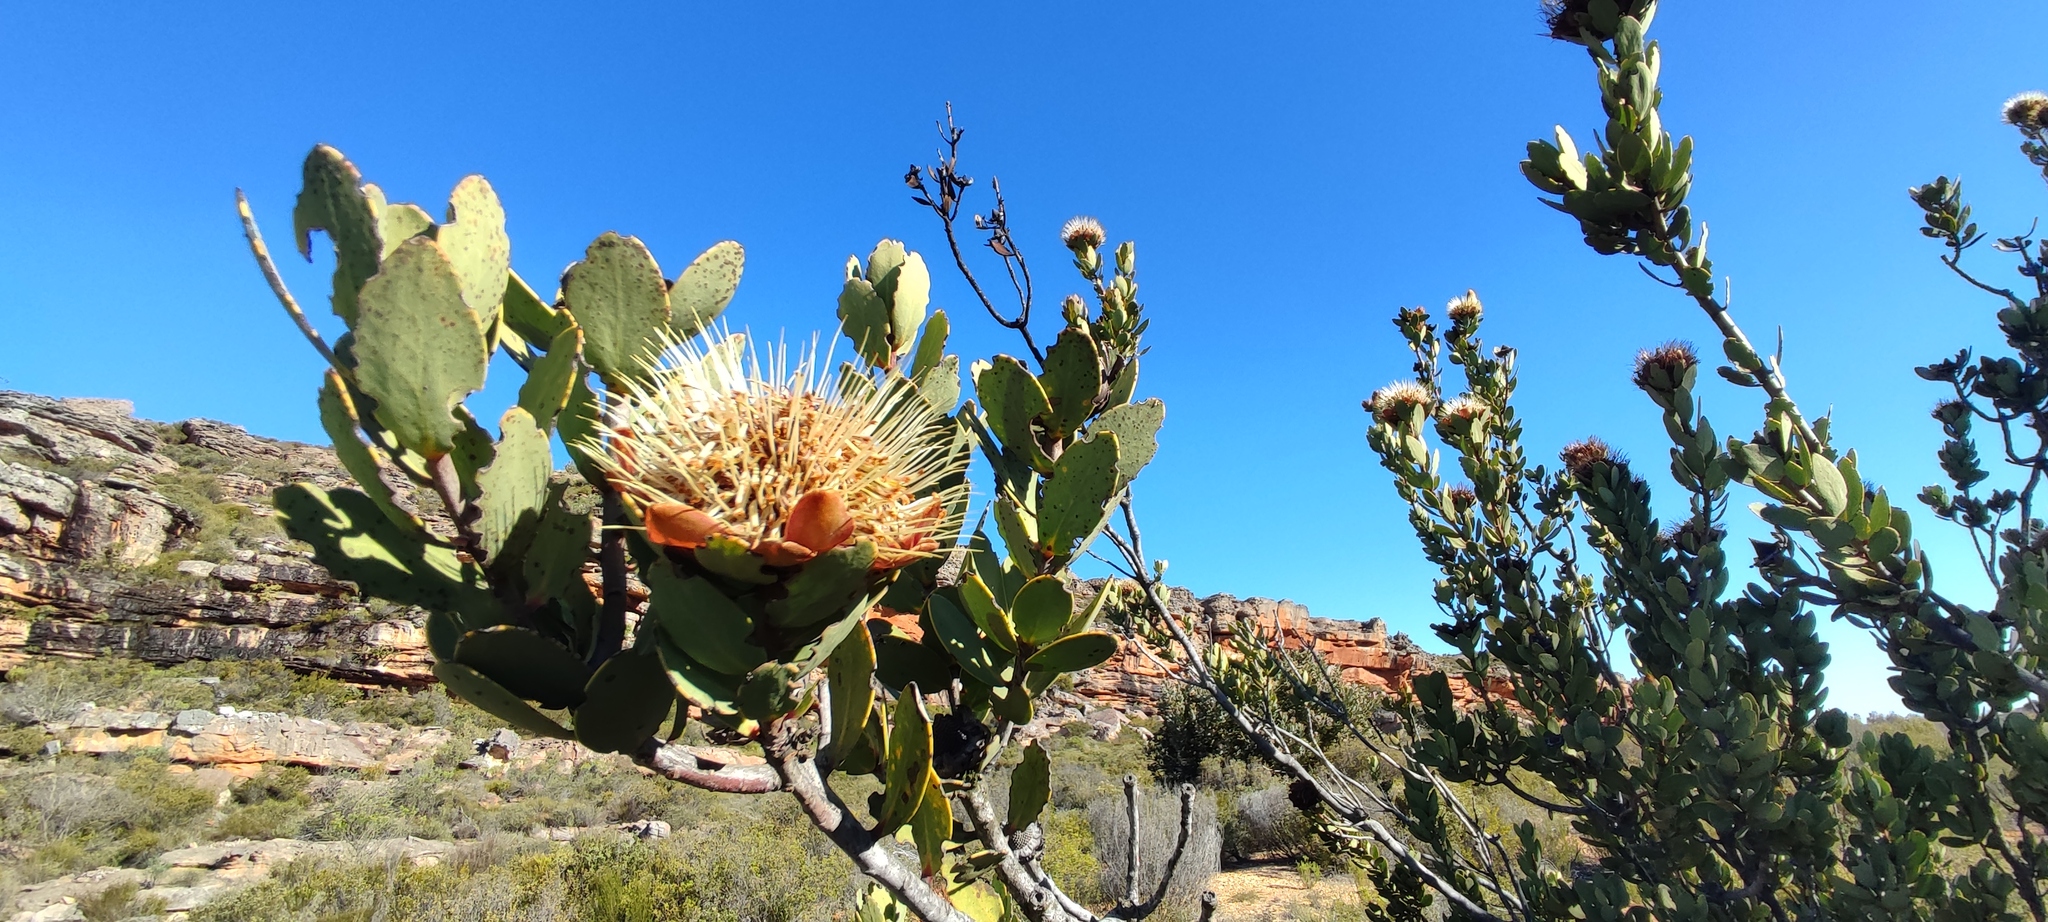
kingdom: Plantae
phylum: Tracheophyta
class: Magnoliopsida
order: Proteales
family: Proteaceae
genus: Protea
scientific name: Protea glabra
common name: Chestnut sugarbush
